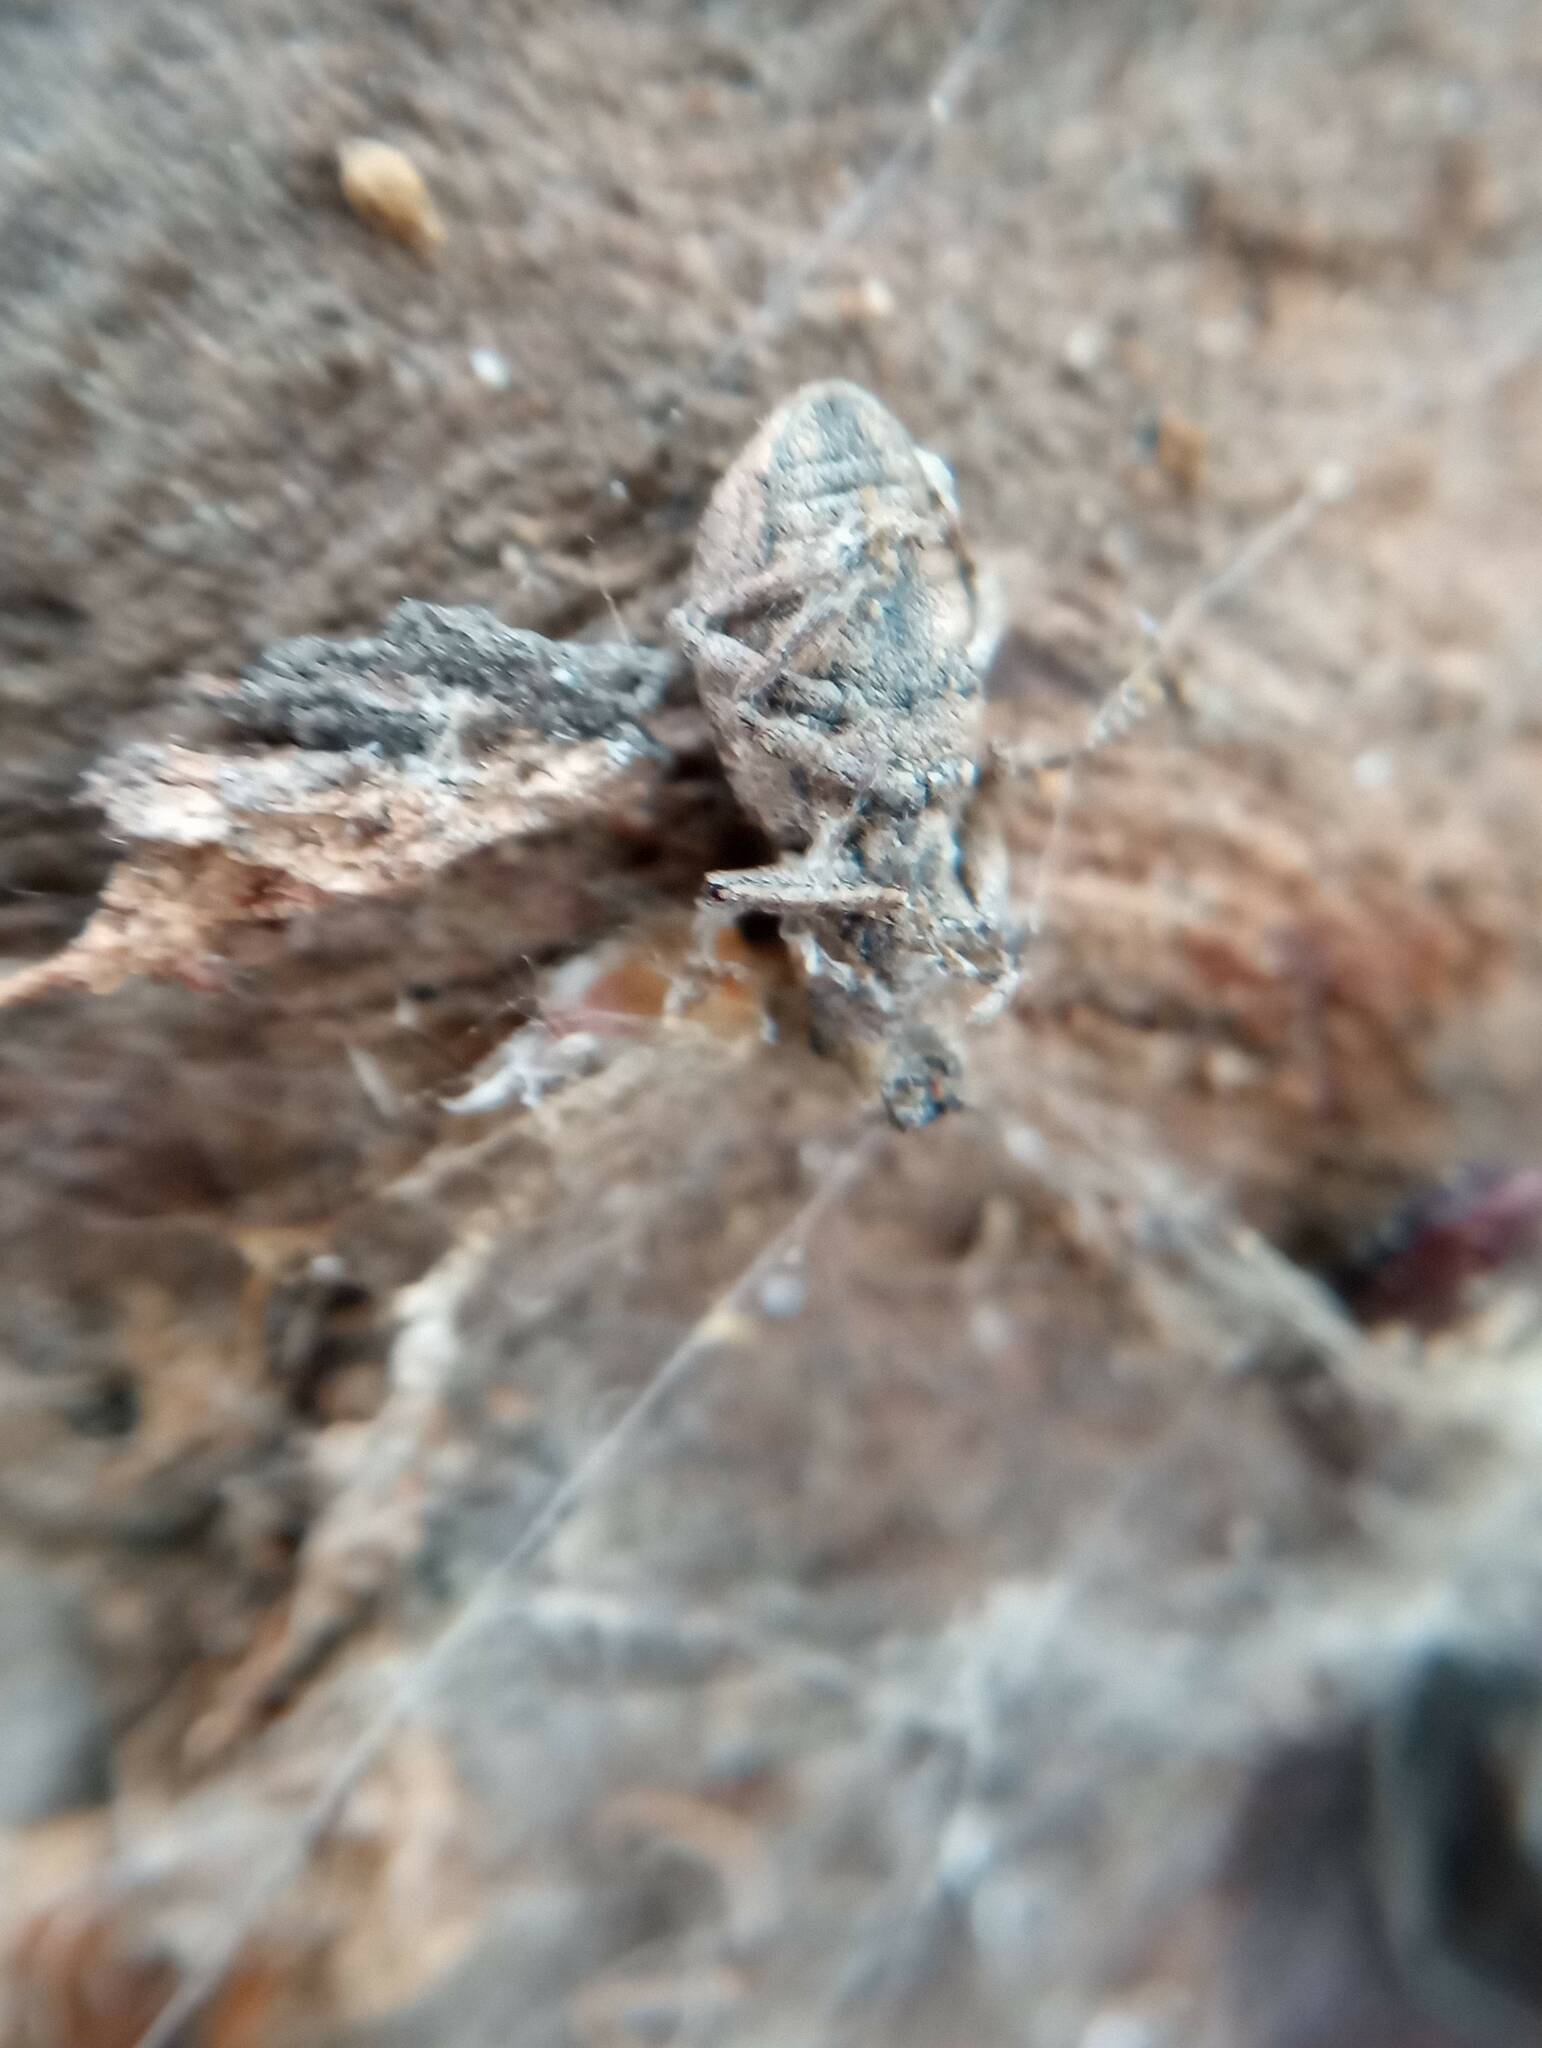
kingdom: Animalia
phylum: Arthropoda
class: Insecta
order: Coleoptera
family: Curculionidae
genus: Naupactus
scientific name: Naupactus cervinus
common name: Fuller rose beetle
